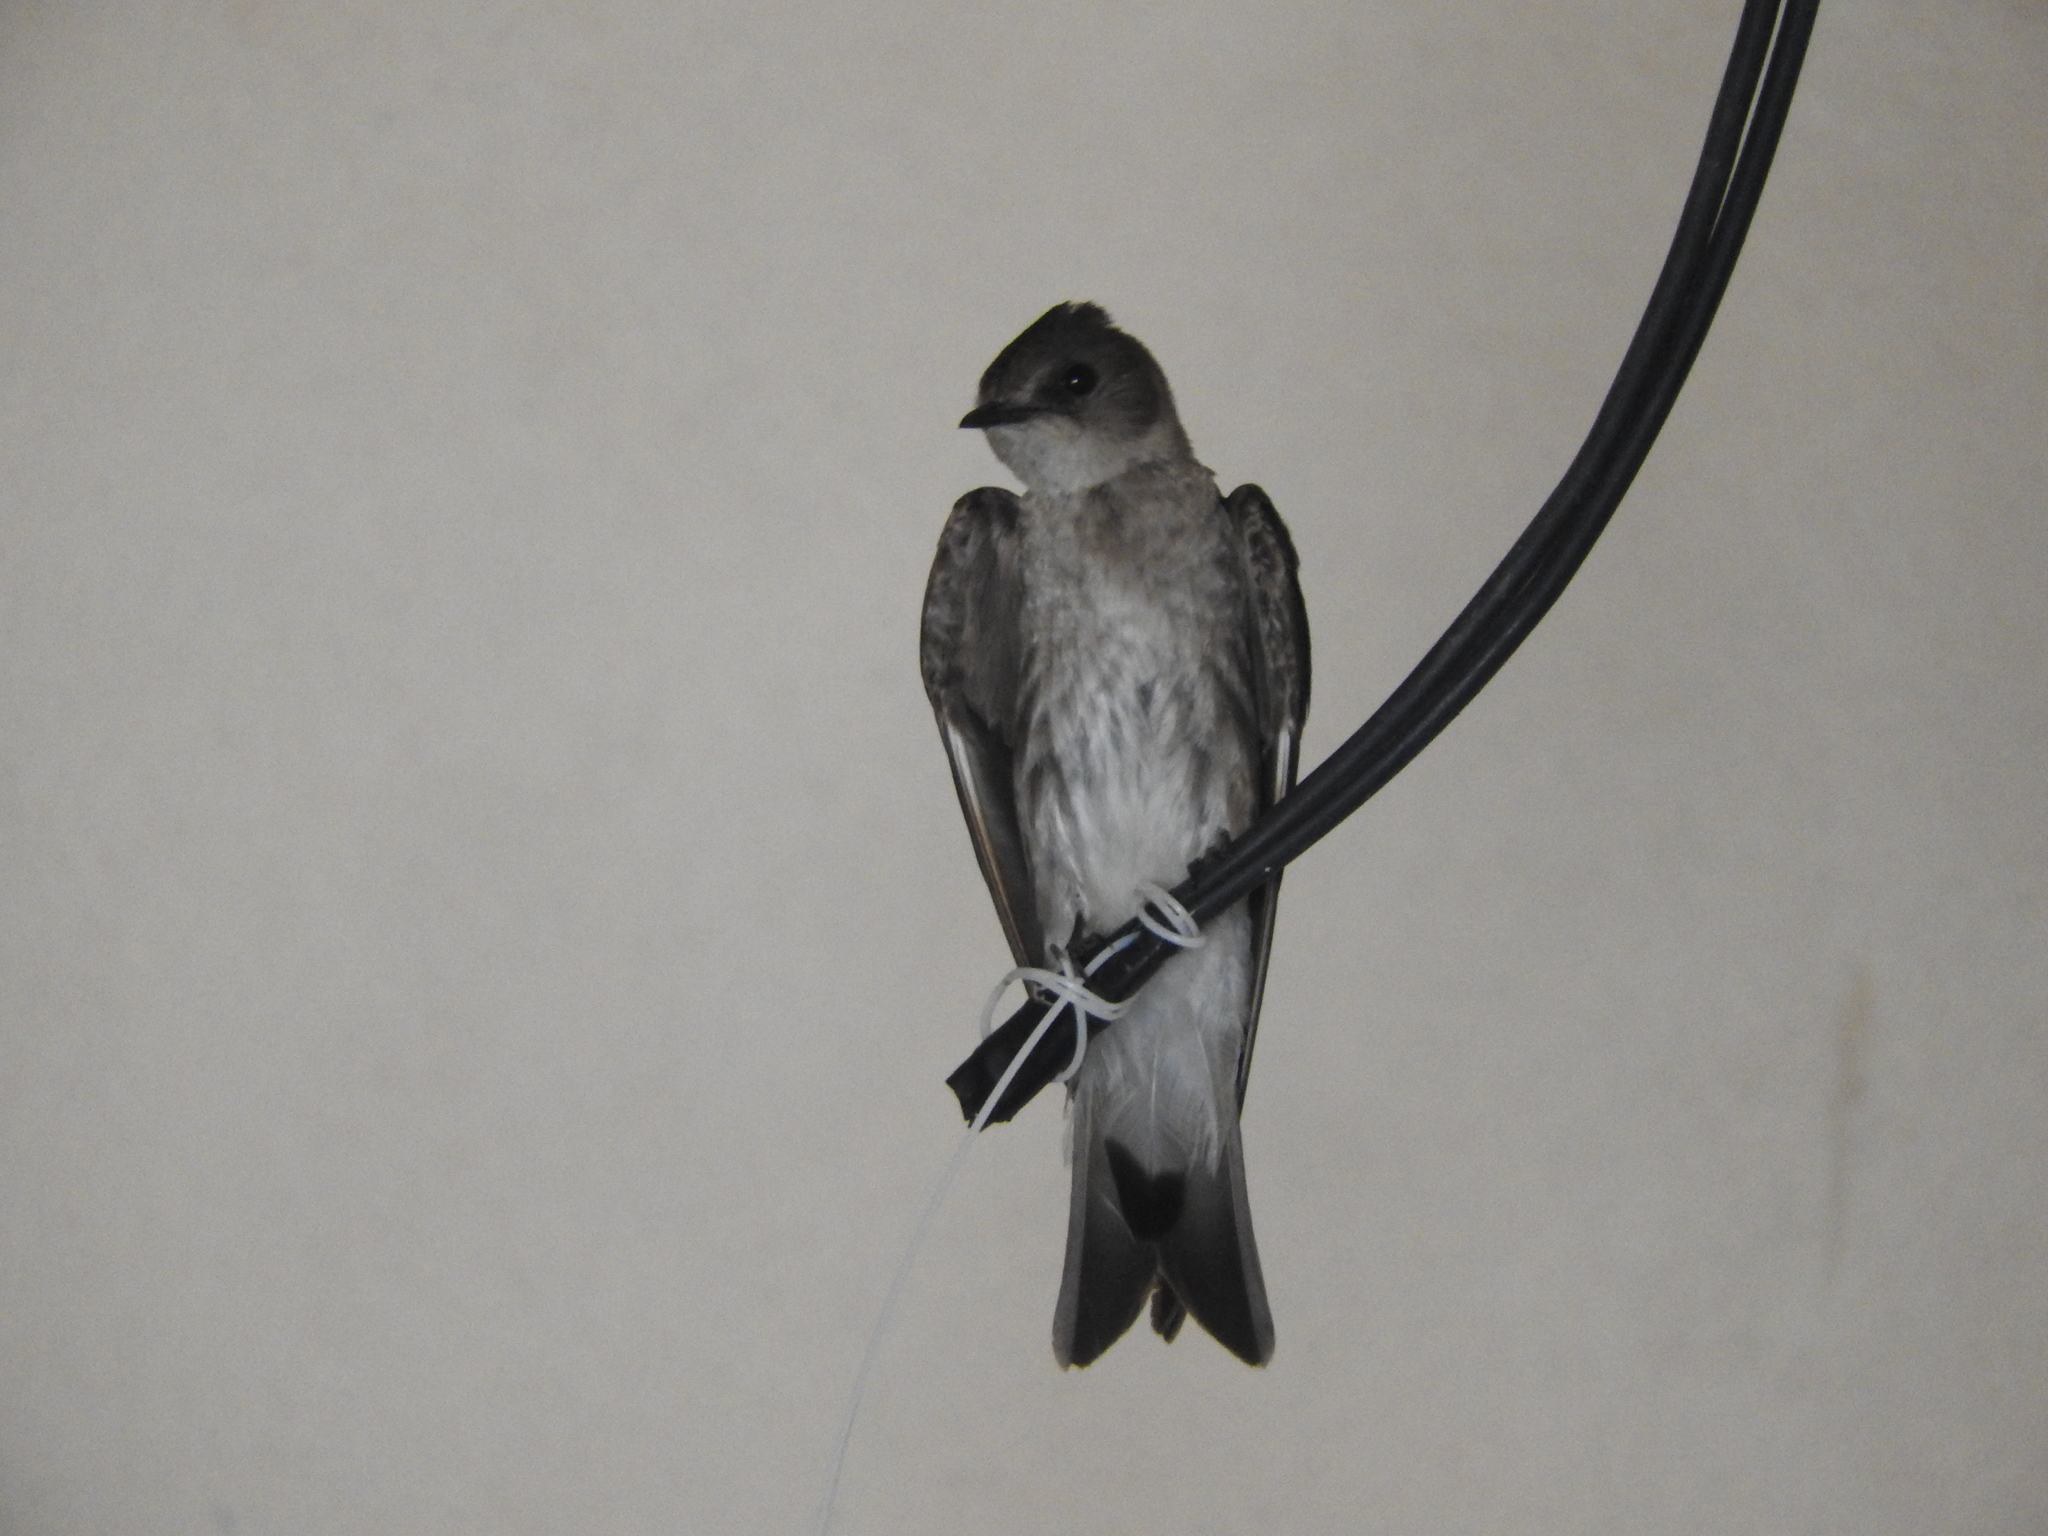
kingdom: Animalia
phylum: Chordata
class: Aves
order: Passeriformes
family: Hirundinidae
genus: Stelgidopteryx
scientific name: Stelgidopteryx serripennis
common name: Northern rough-winged swallow
